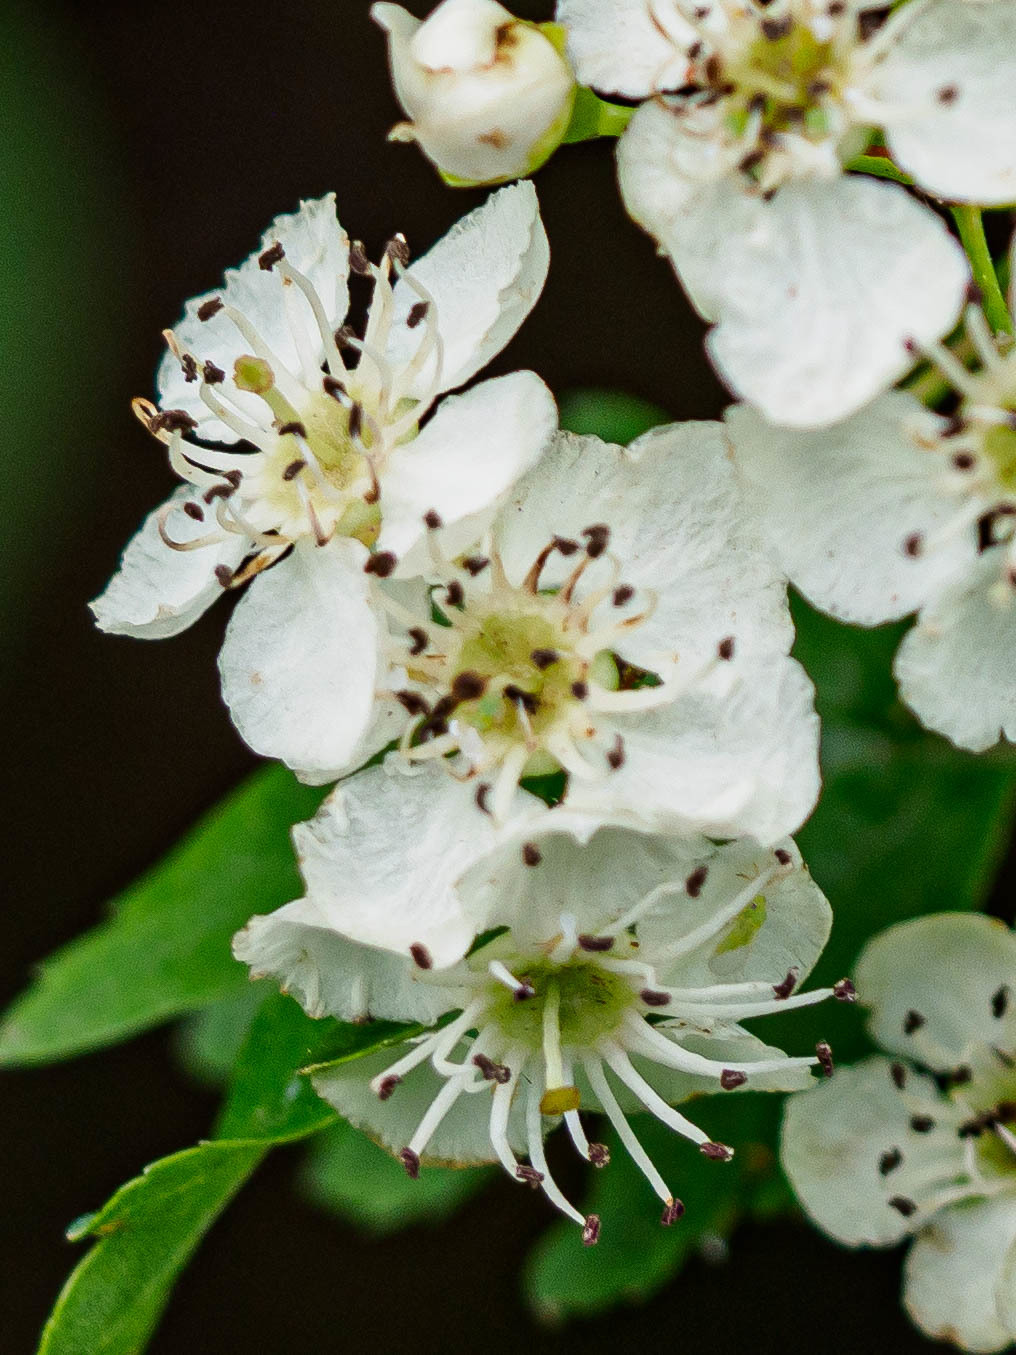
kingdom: Plantae
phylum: Tracheophyta
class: Magnoliopsida
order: Rosales
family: Rosaceae
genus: Crataegus
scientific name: Crataegus monogyna
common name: Hawthorn
